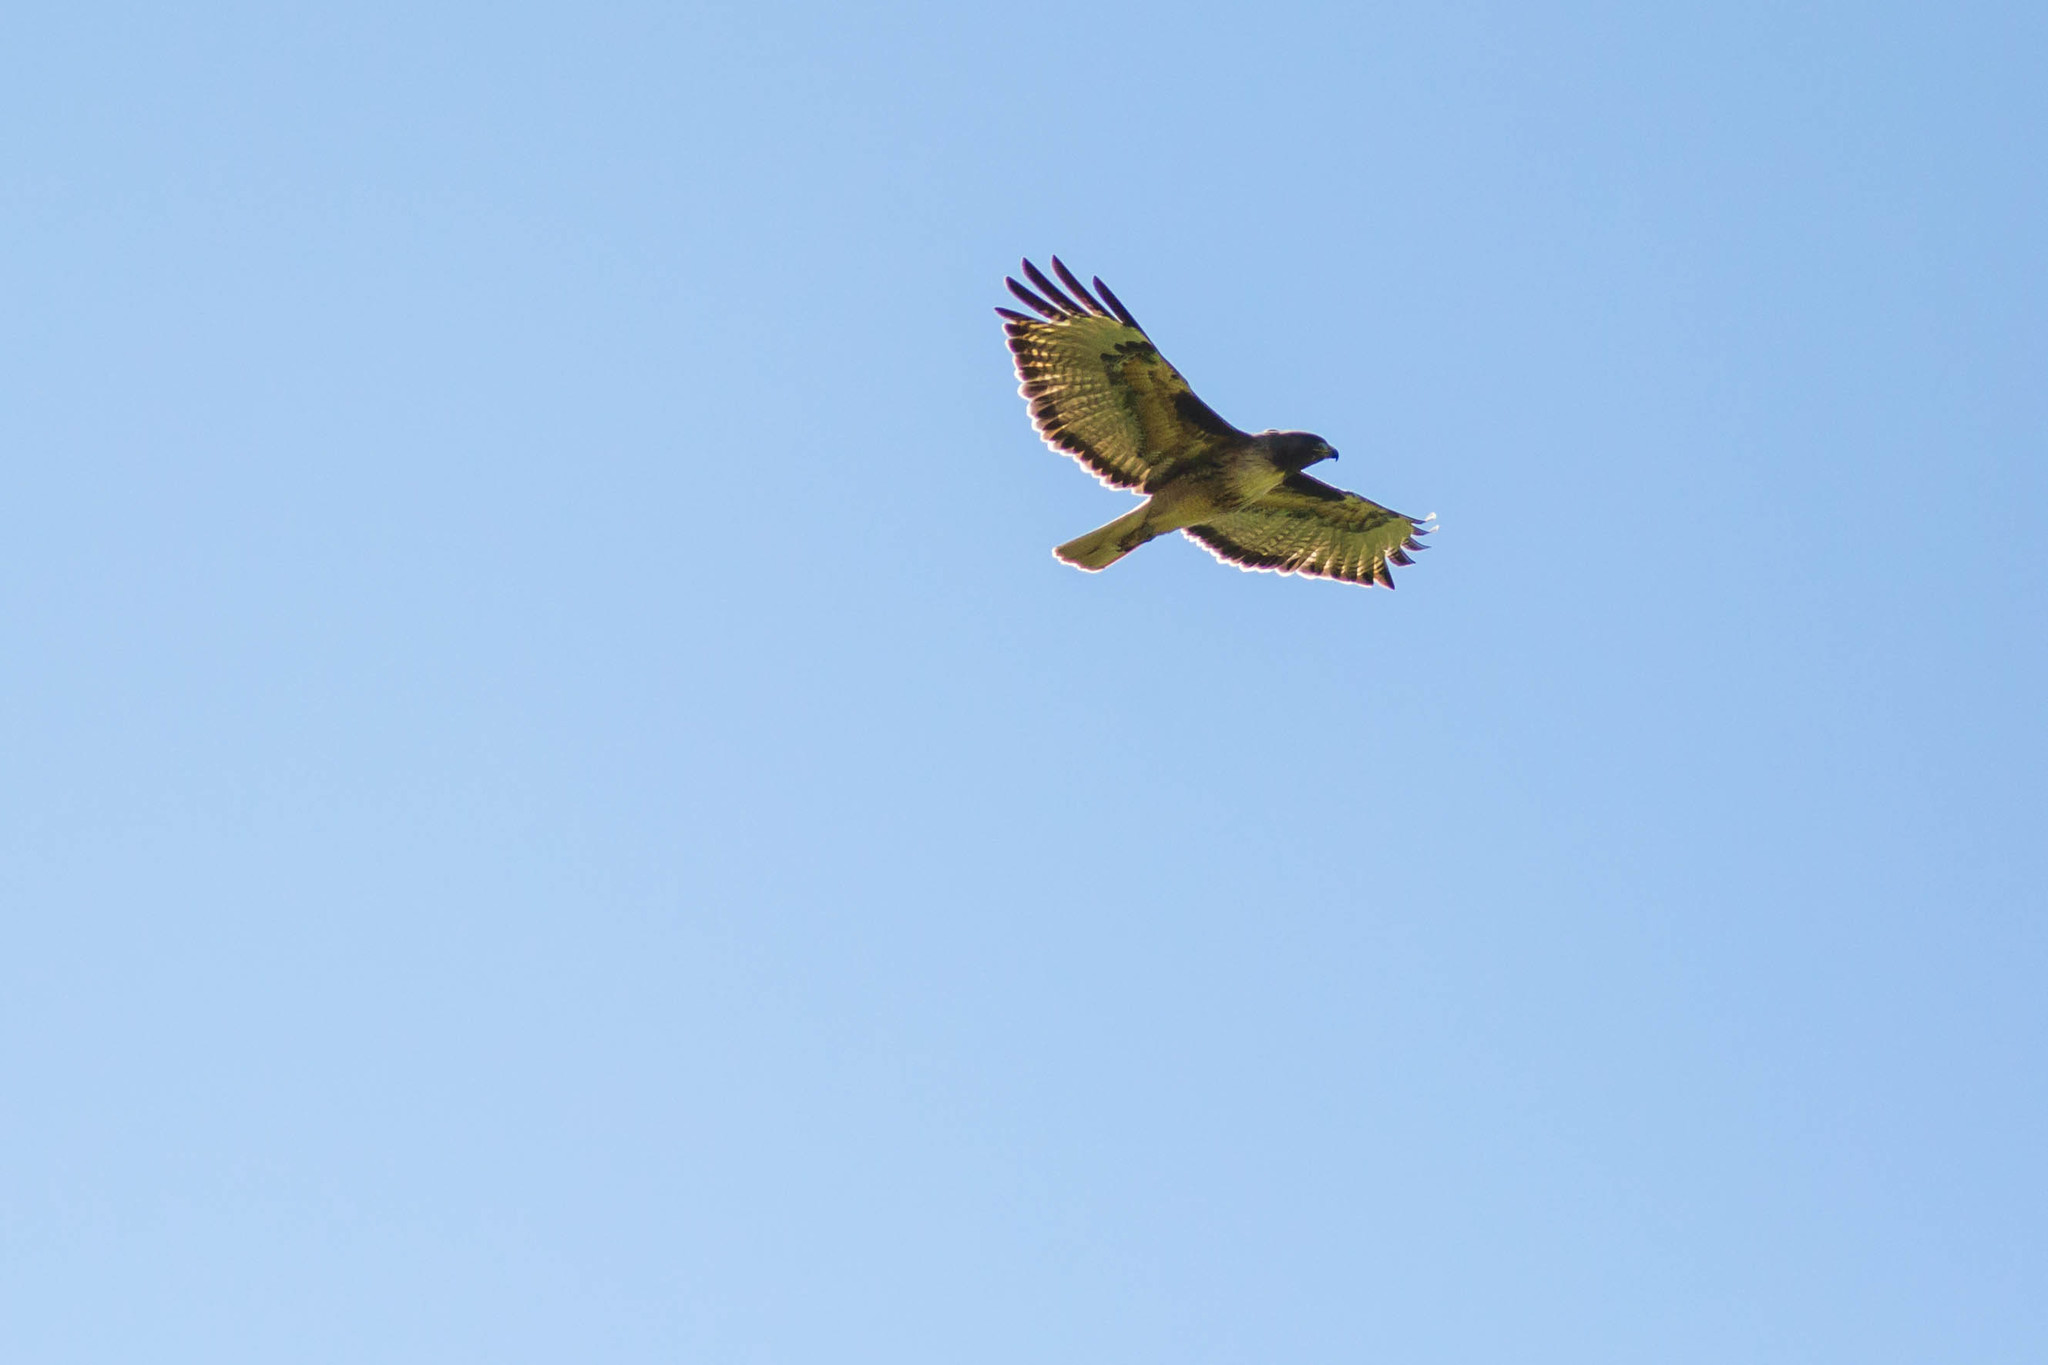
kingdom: Animalia
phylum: Chordata
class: Aves
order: Accipitriformes
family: Accipitridae
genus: Buteo
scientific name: Buteo jamaicensis
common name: Red-tailed hawk
